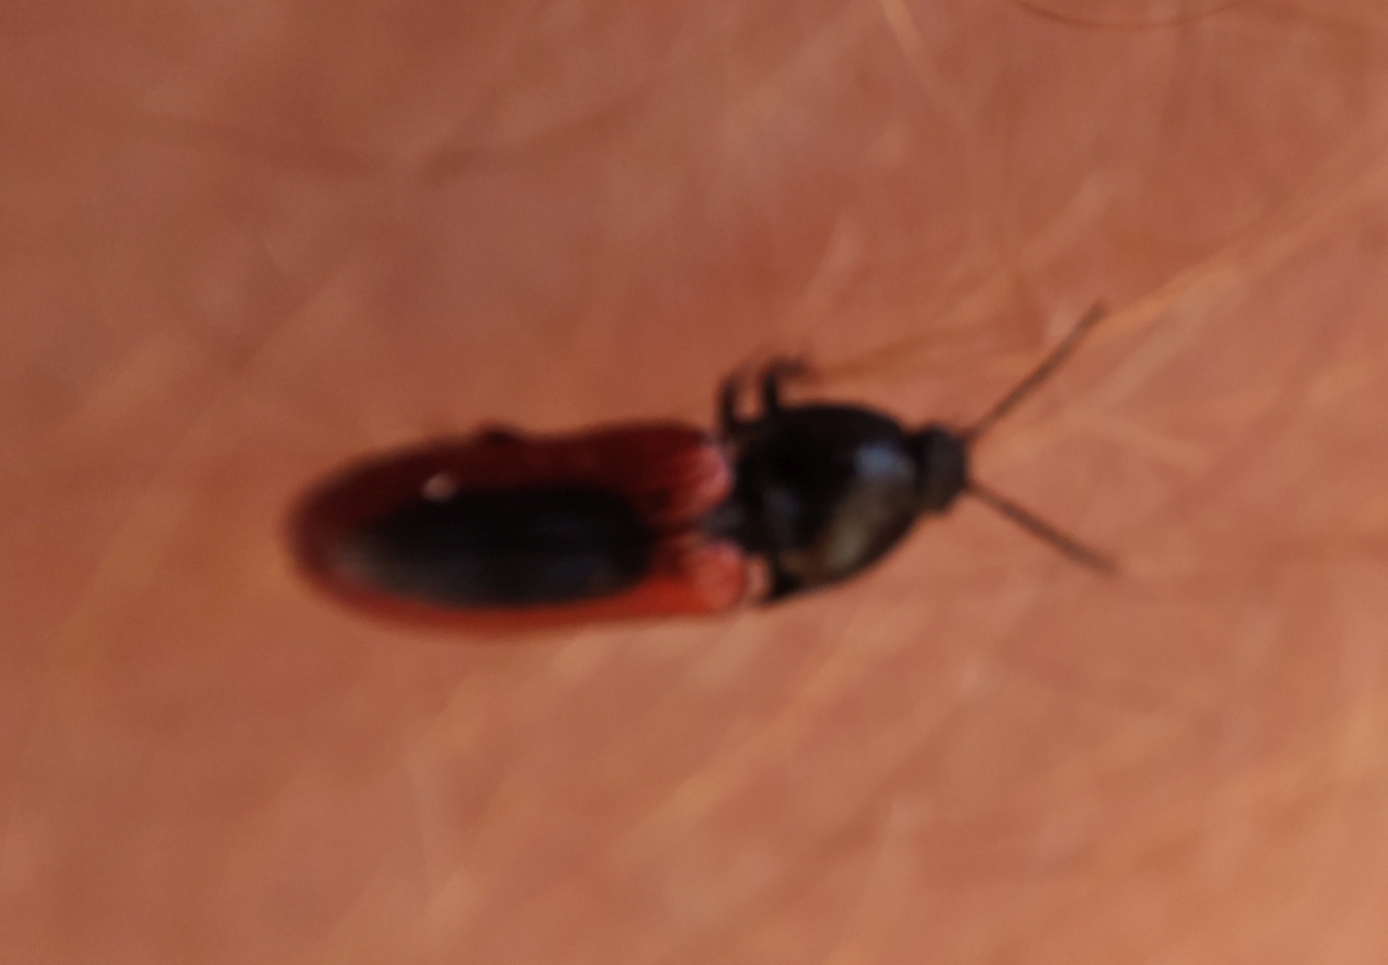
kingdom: Animalia
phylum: Arthropoda
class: Insecta
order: Coleoptera
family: Elateridae
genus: Ampedus
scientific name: Ampedus sanguinolentus
